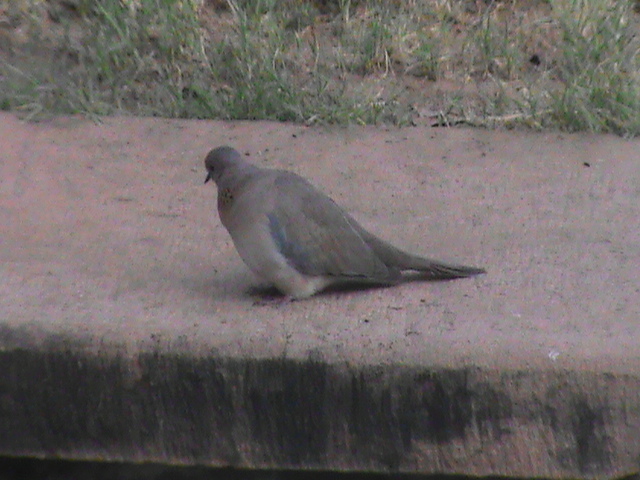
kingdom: Animalia
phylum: Chordata
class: Aves
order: Columbiformes
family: Columbidae
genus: Spilopelia
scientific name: Spilopelia senegalensis
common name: Laughing dove
